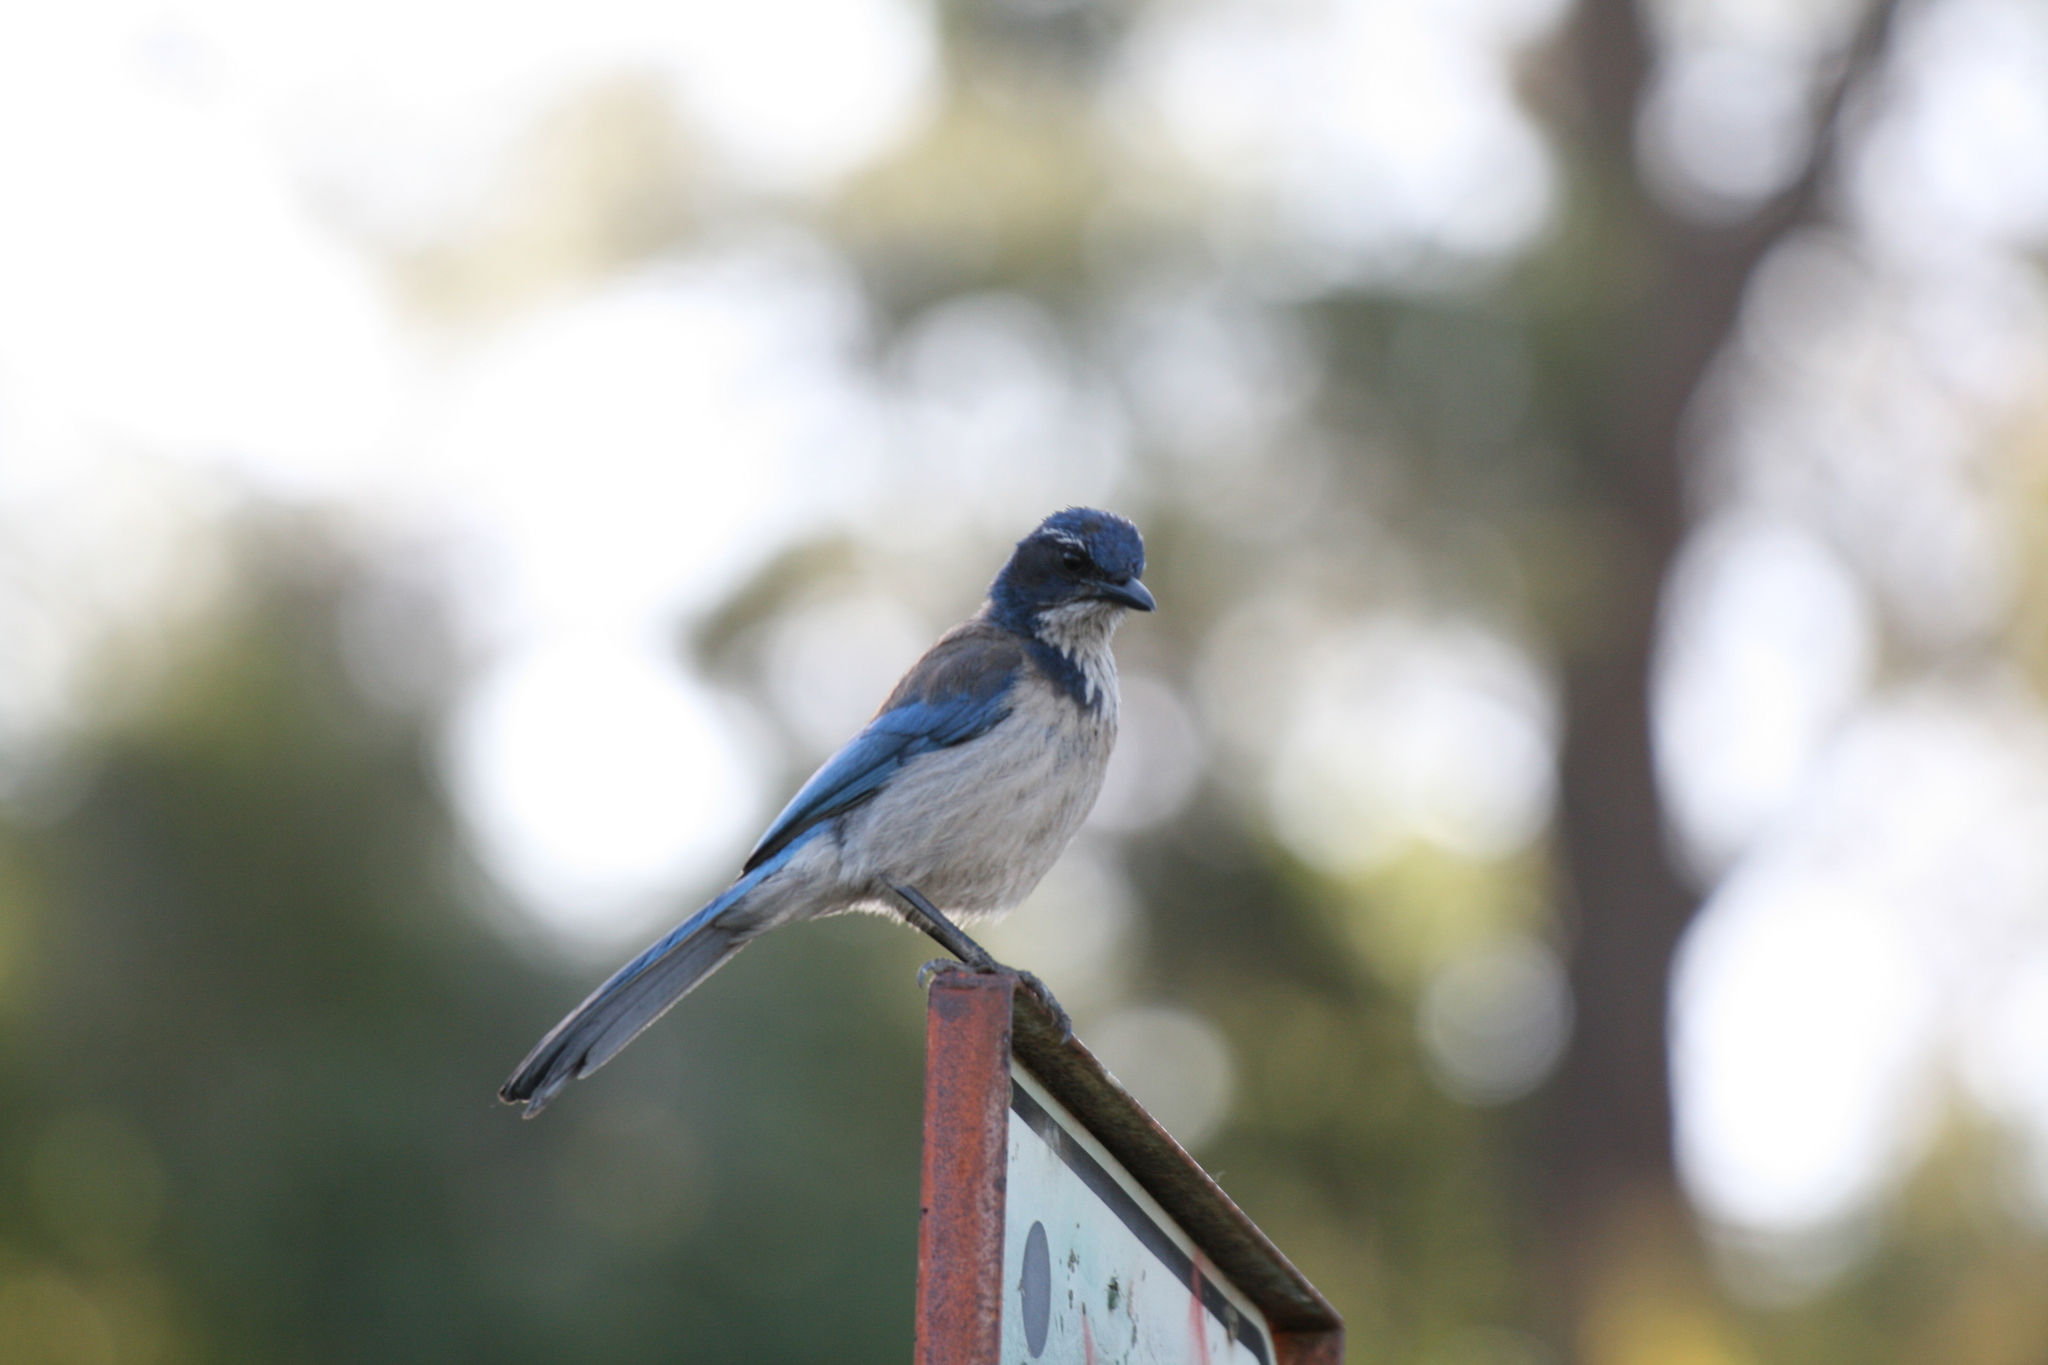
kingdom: Animalia
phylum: Chordata
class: Aves
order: Passeriformes
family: Corvidae
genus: Aphelocoma
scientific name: Aphelocoma californica
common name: California scrub-jay
